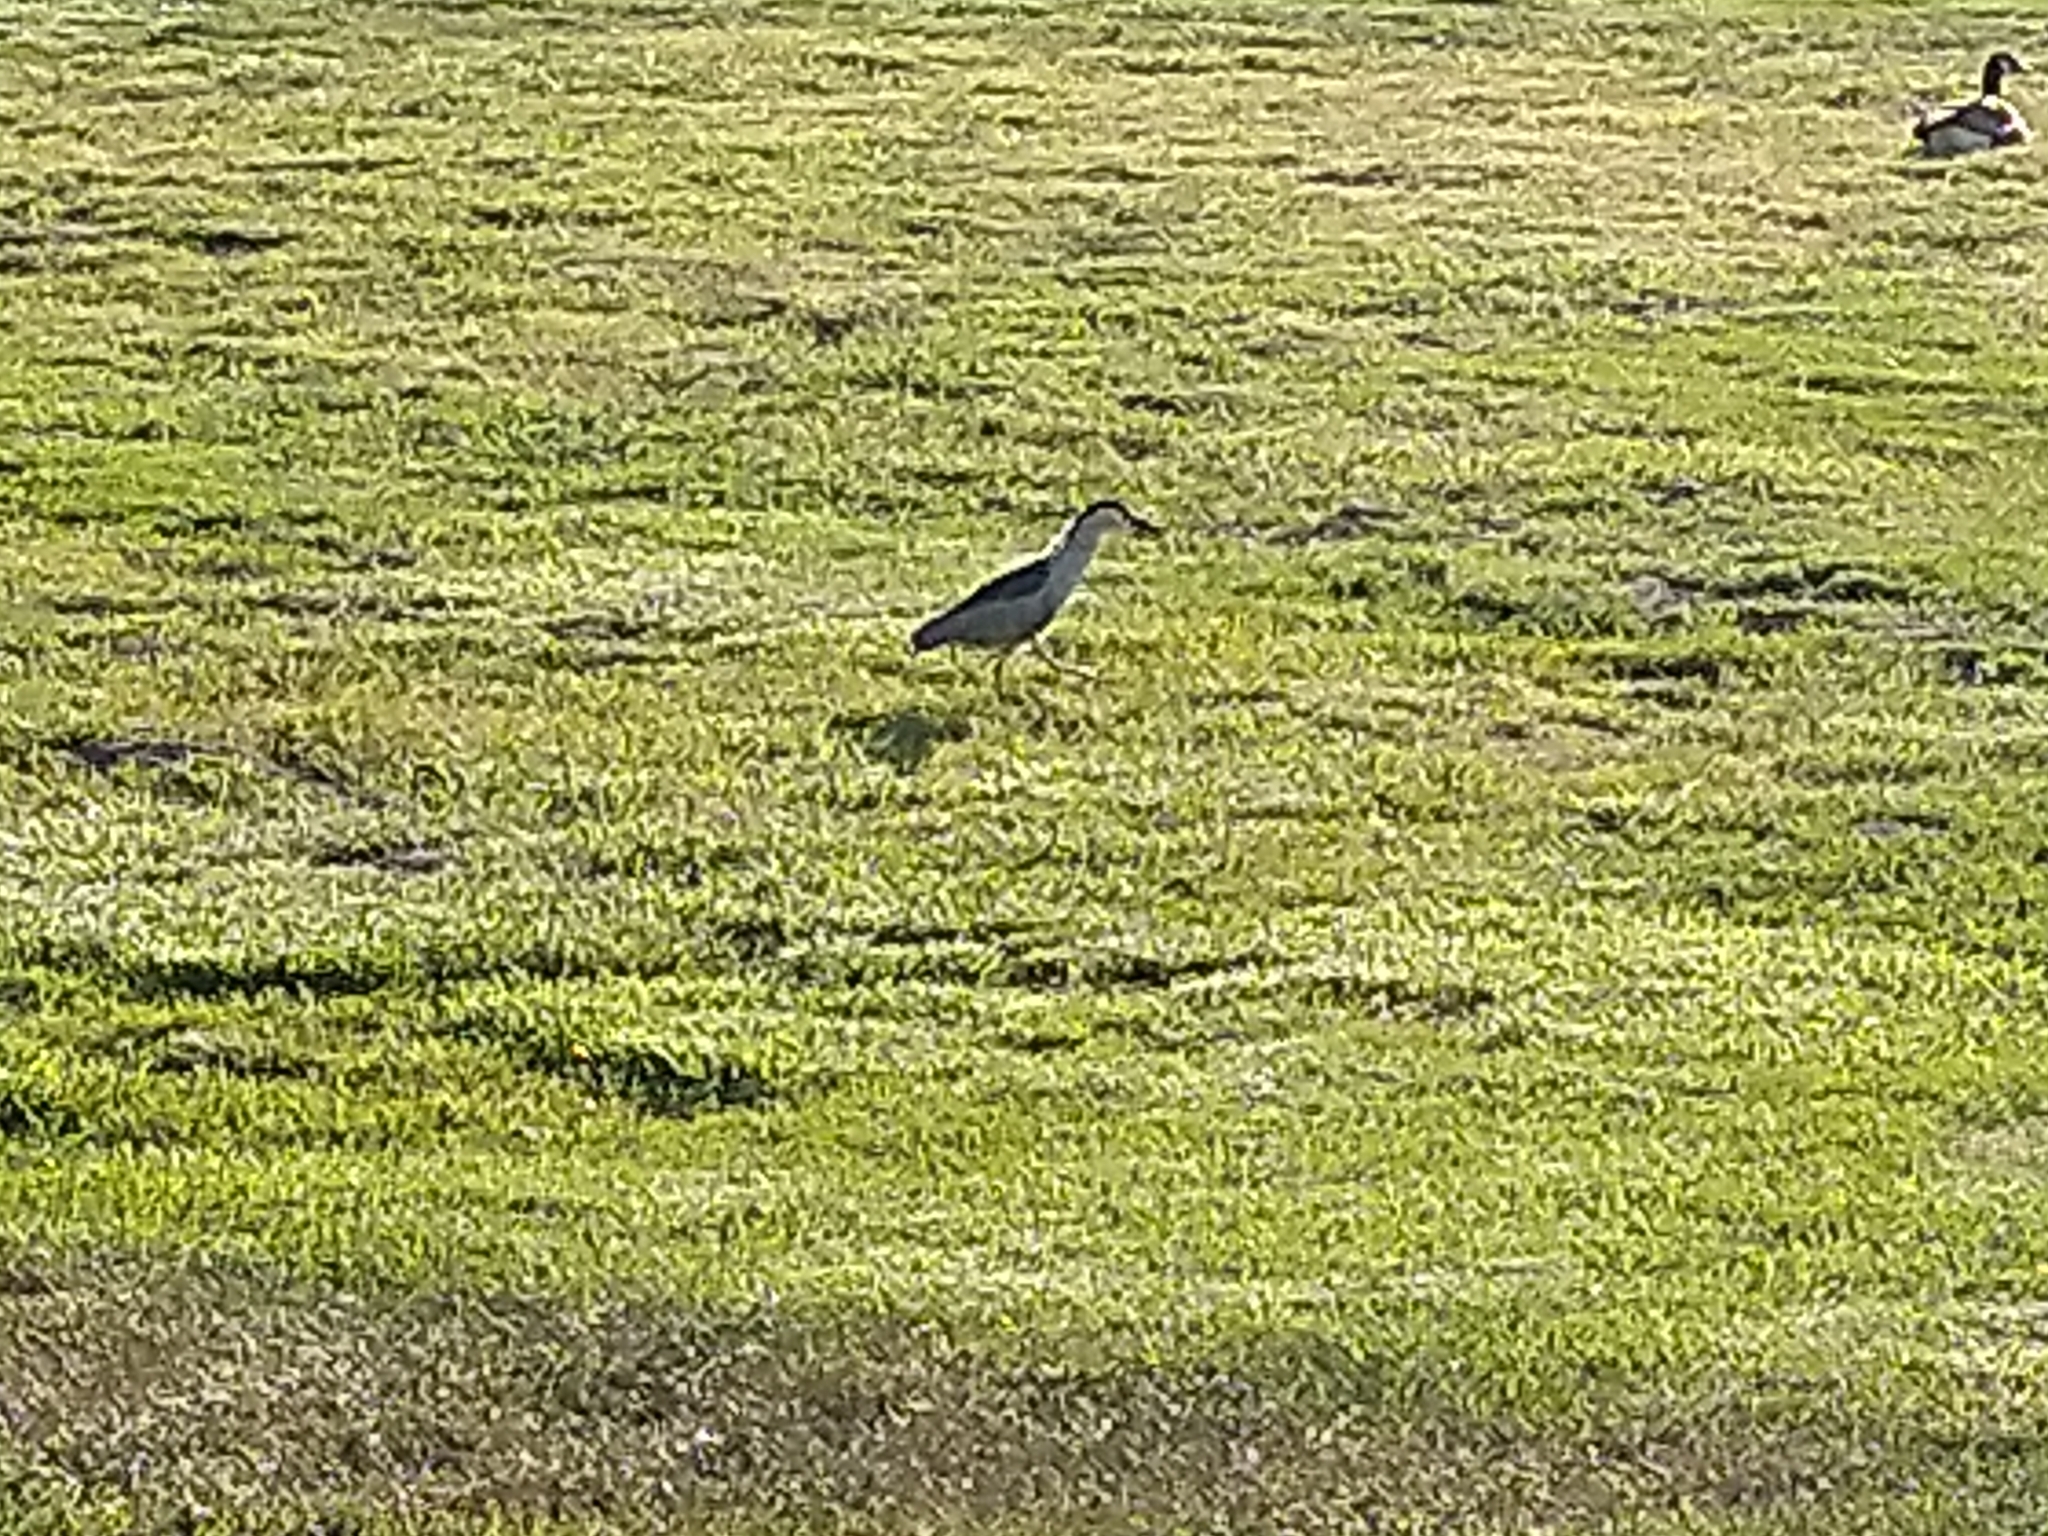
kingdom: Animalia
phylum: Chordata
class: Aves
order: Pelecaniformes
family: Ardeidae
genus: Nycticorax
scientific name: Nycticorax nycticorax
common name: Black-crowned night heron
